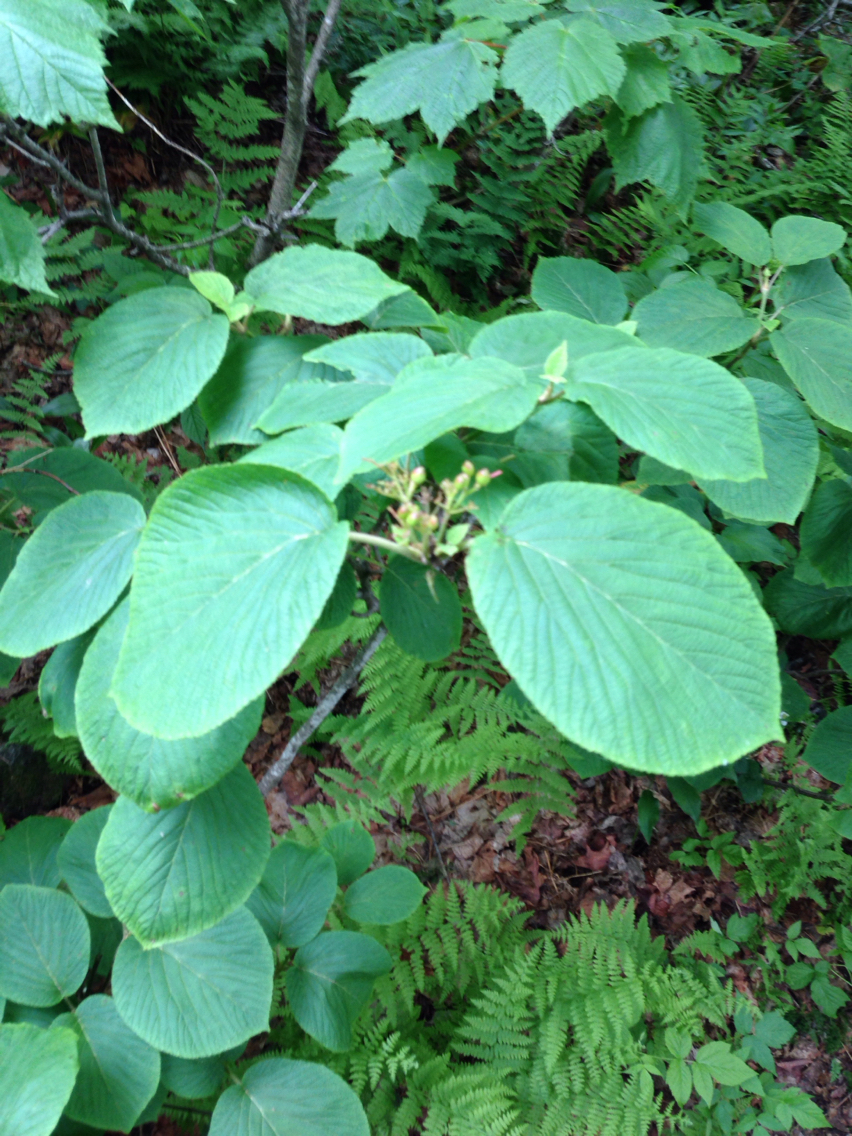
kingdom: Plantae
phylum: Tracheophyta
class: Magnoliopsida
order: Dipsacales
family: Viburnaceae
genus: Viburnum
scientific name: Viburnum lantanoides
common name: Hobblebush
